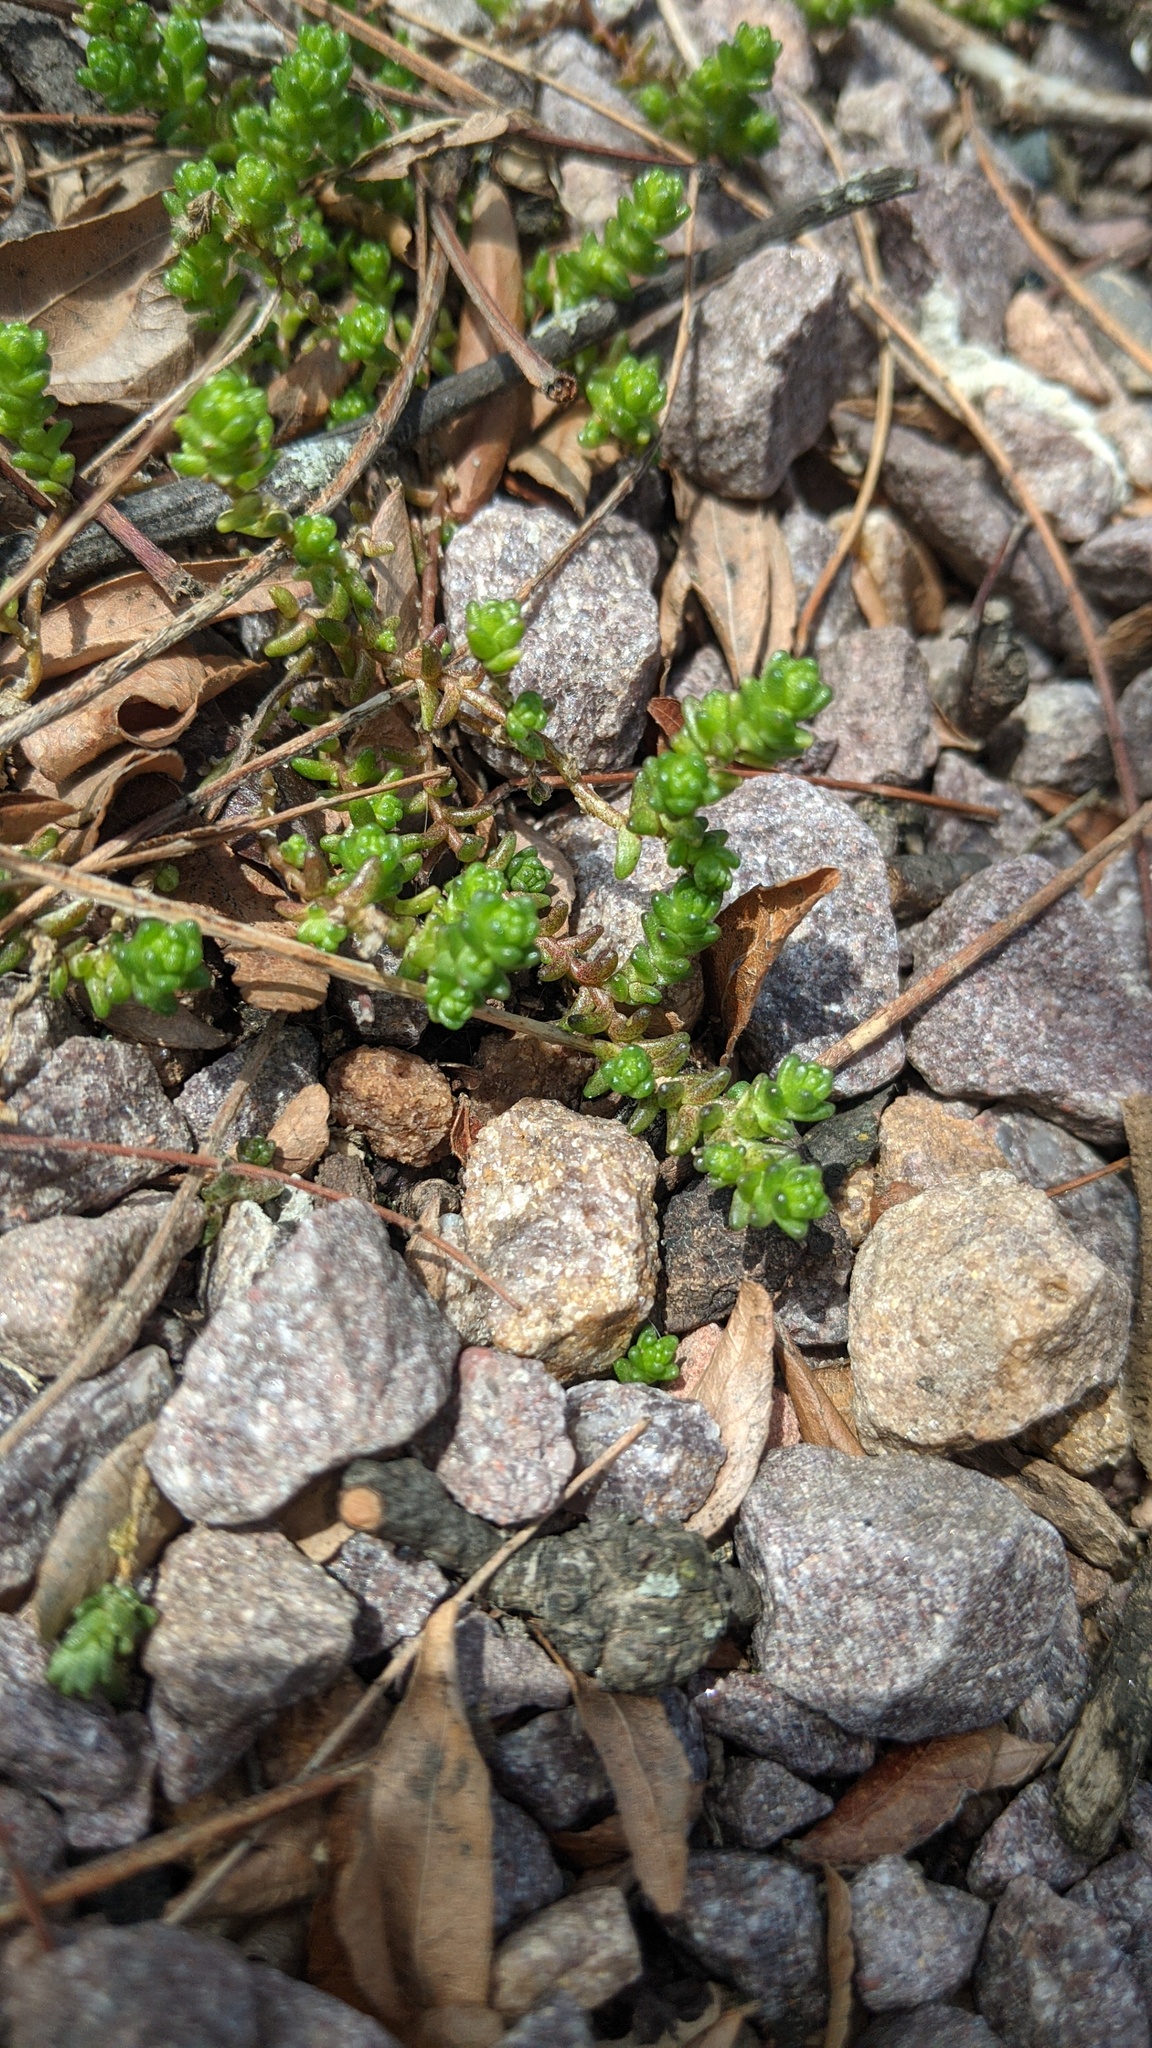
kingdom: Plantae
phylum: Tracheophyta
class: Magnoliopsida
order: Saxifragales
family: Crassulaceae
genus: Sedum
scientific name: Sedum acre
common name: Biting stonecrop
